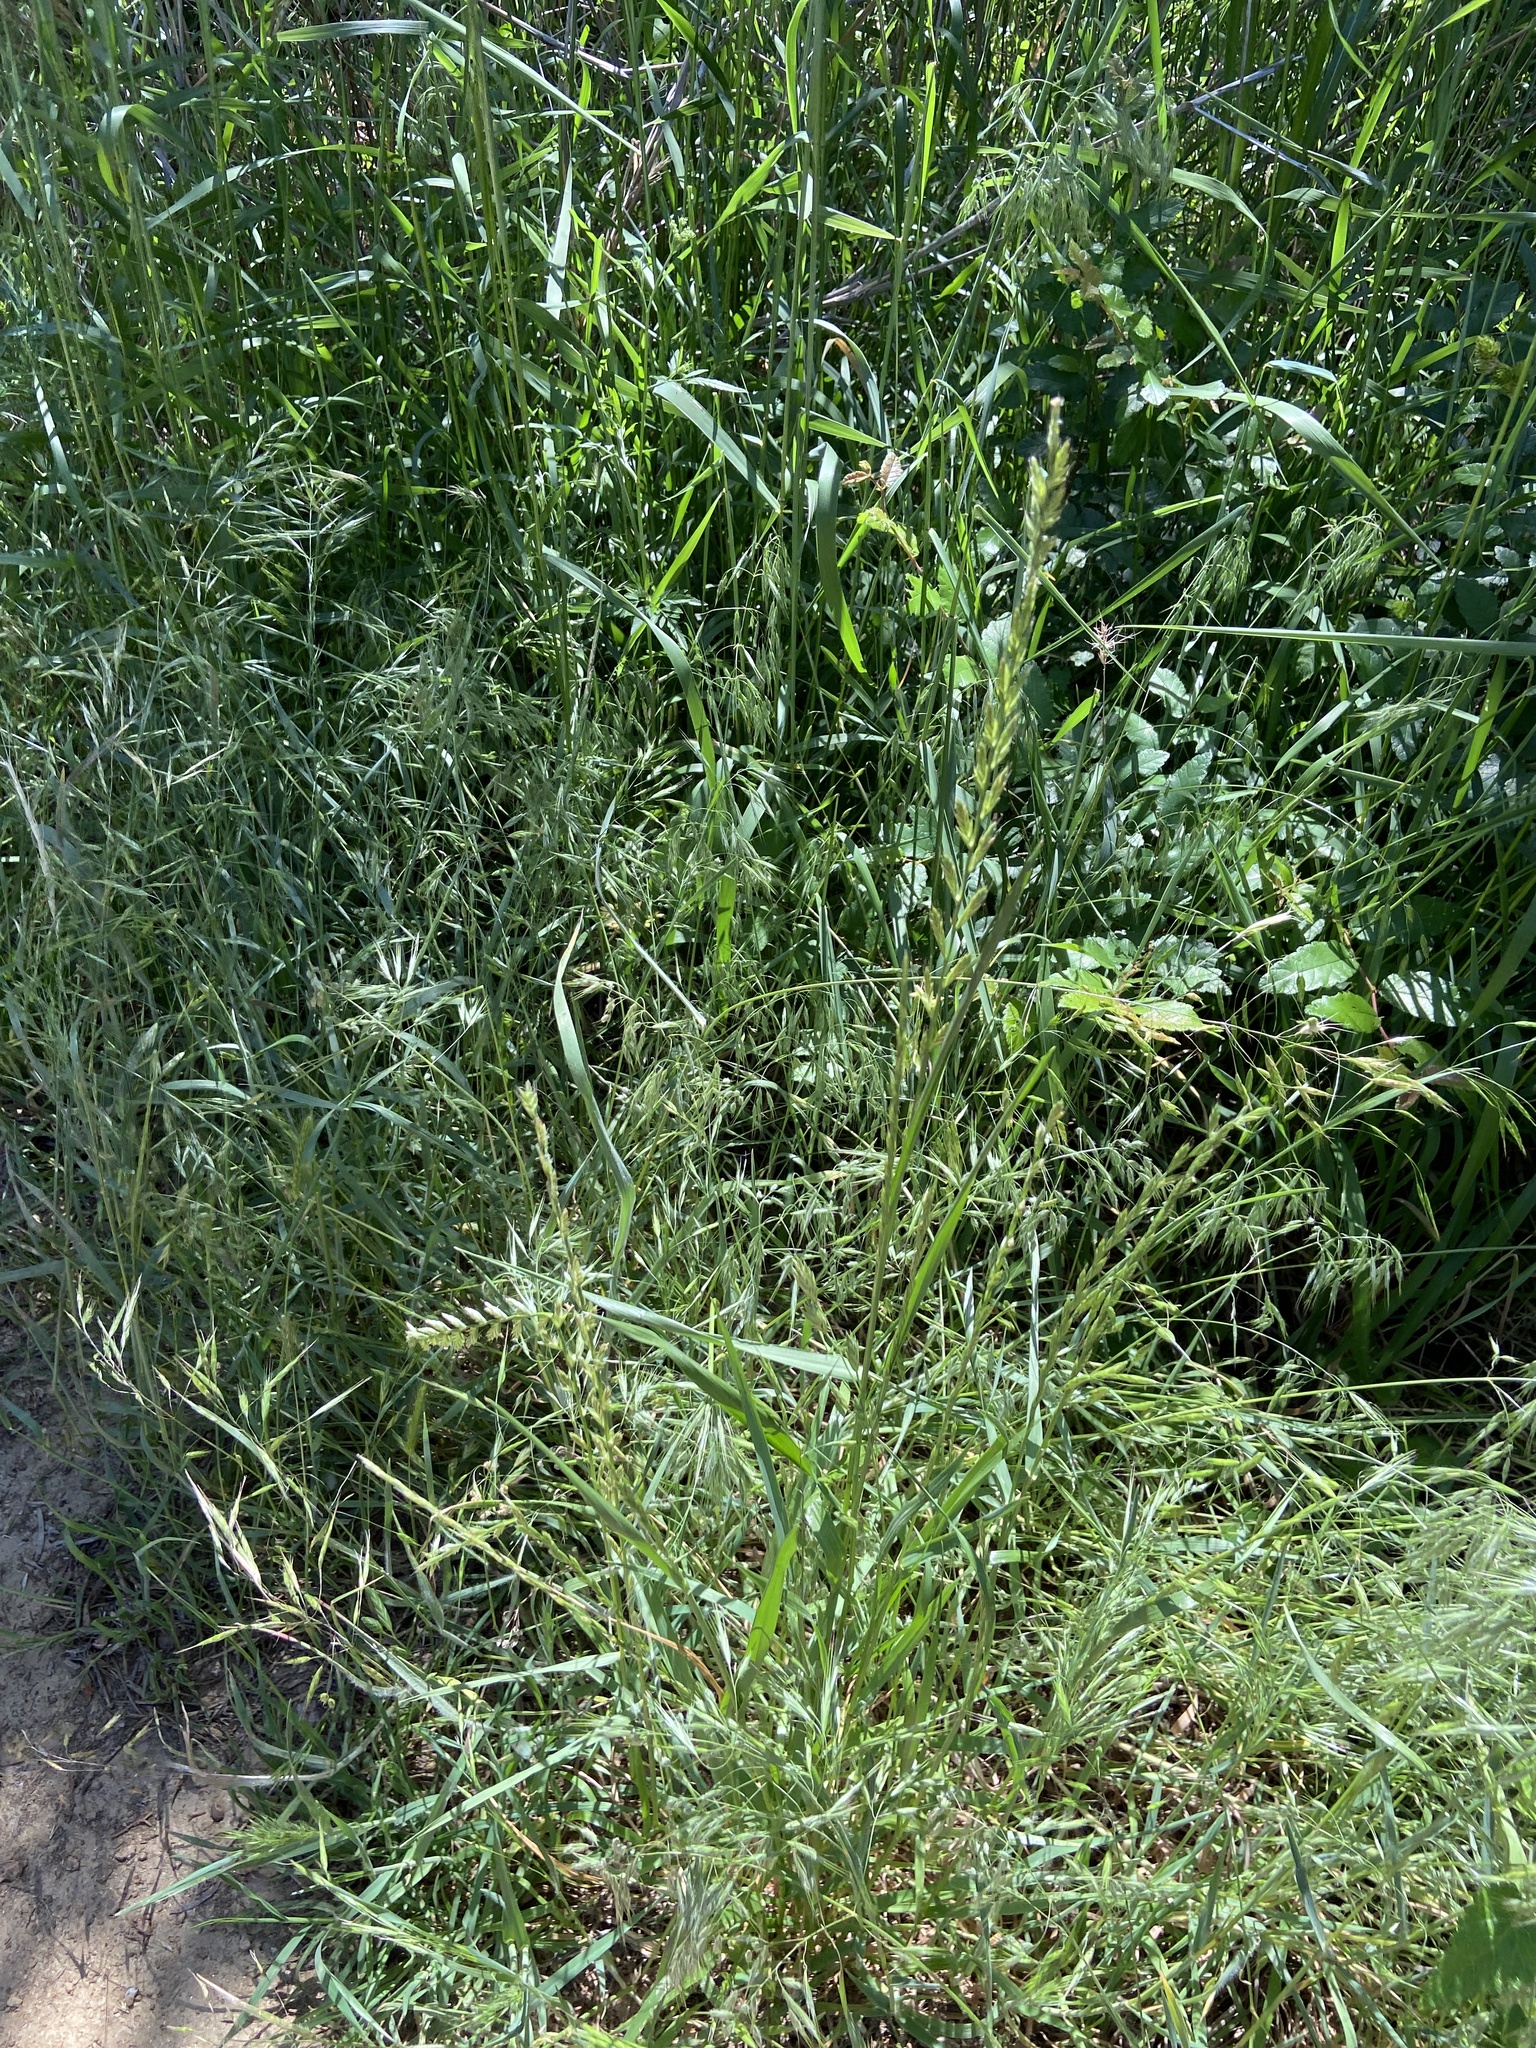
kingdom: Plantae
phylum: Tracheophyta
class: Liliopsida
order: Poales
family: Poaceae
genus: Lolium
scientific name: Lolium perenne
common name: Perennial ryegrass
